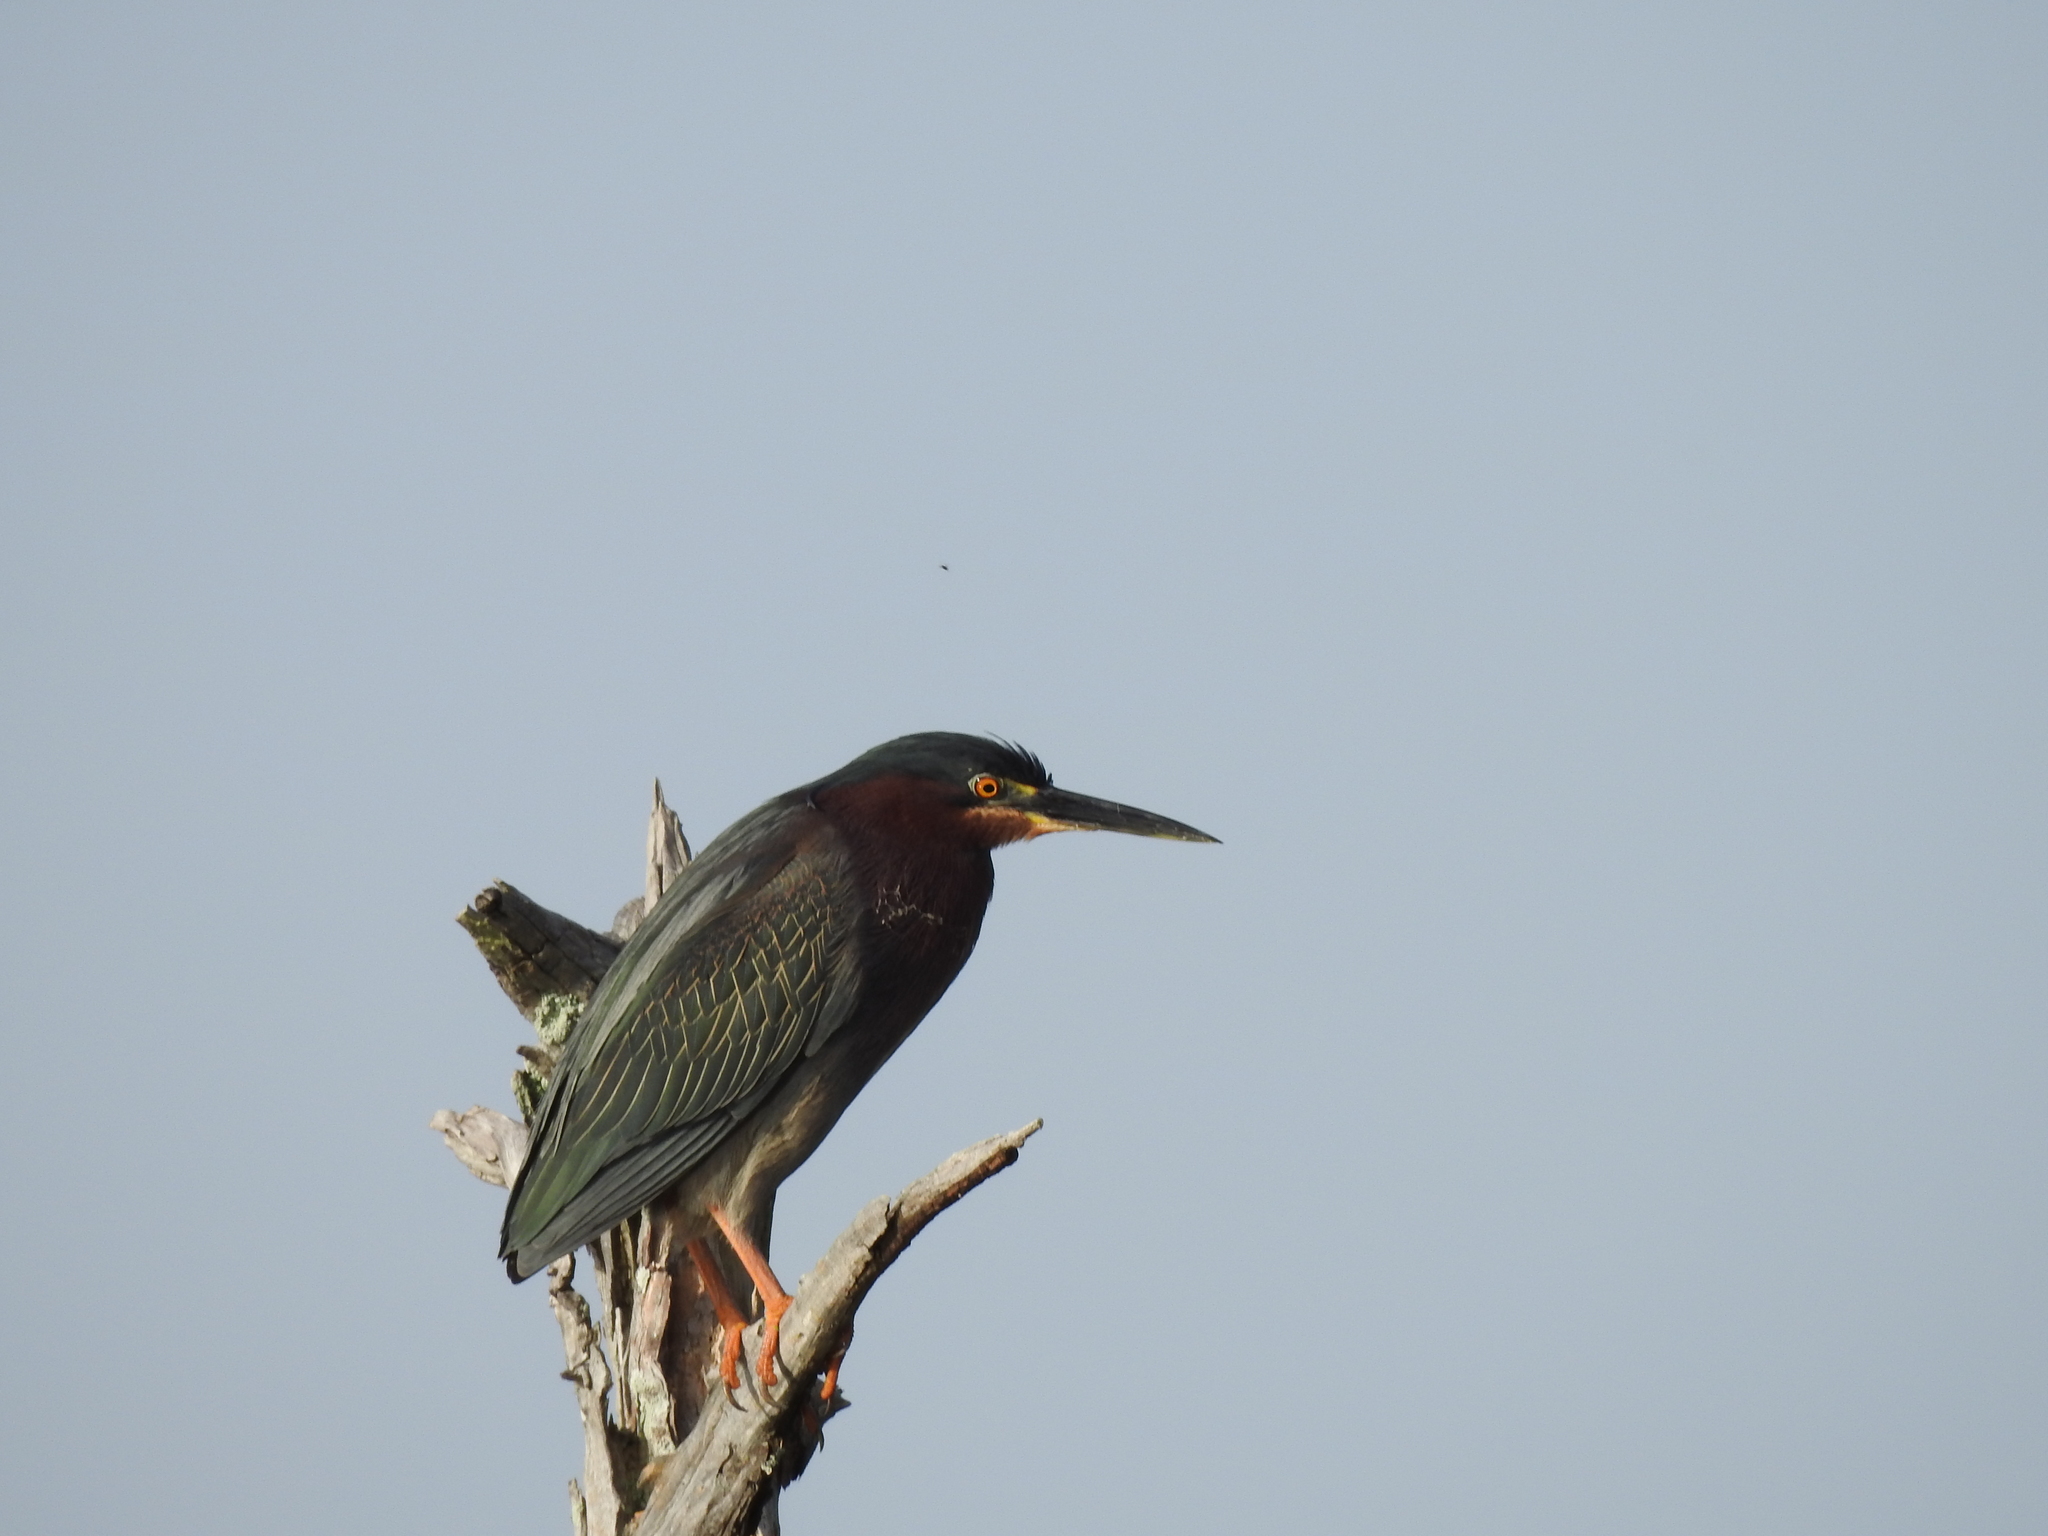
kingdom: Animalia
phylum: Chordata
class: Aves
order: Pelecaniformes
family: Ardeidae
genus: Butorides
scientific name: Butorides virescens
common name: Green heron
